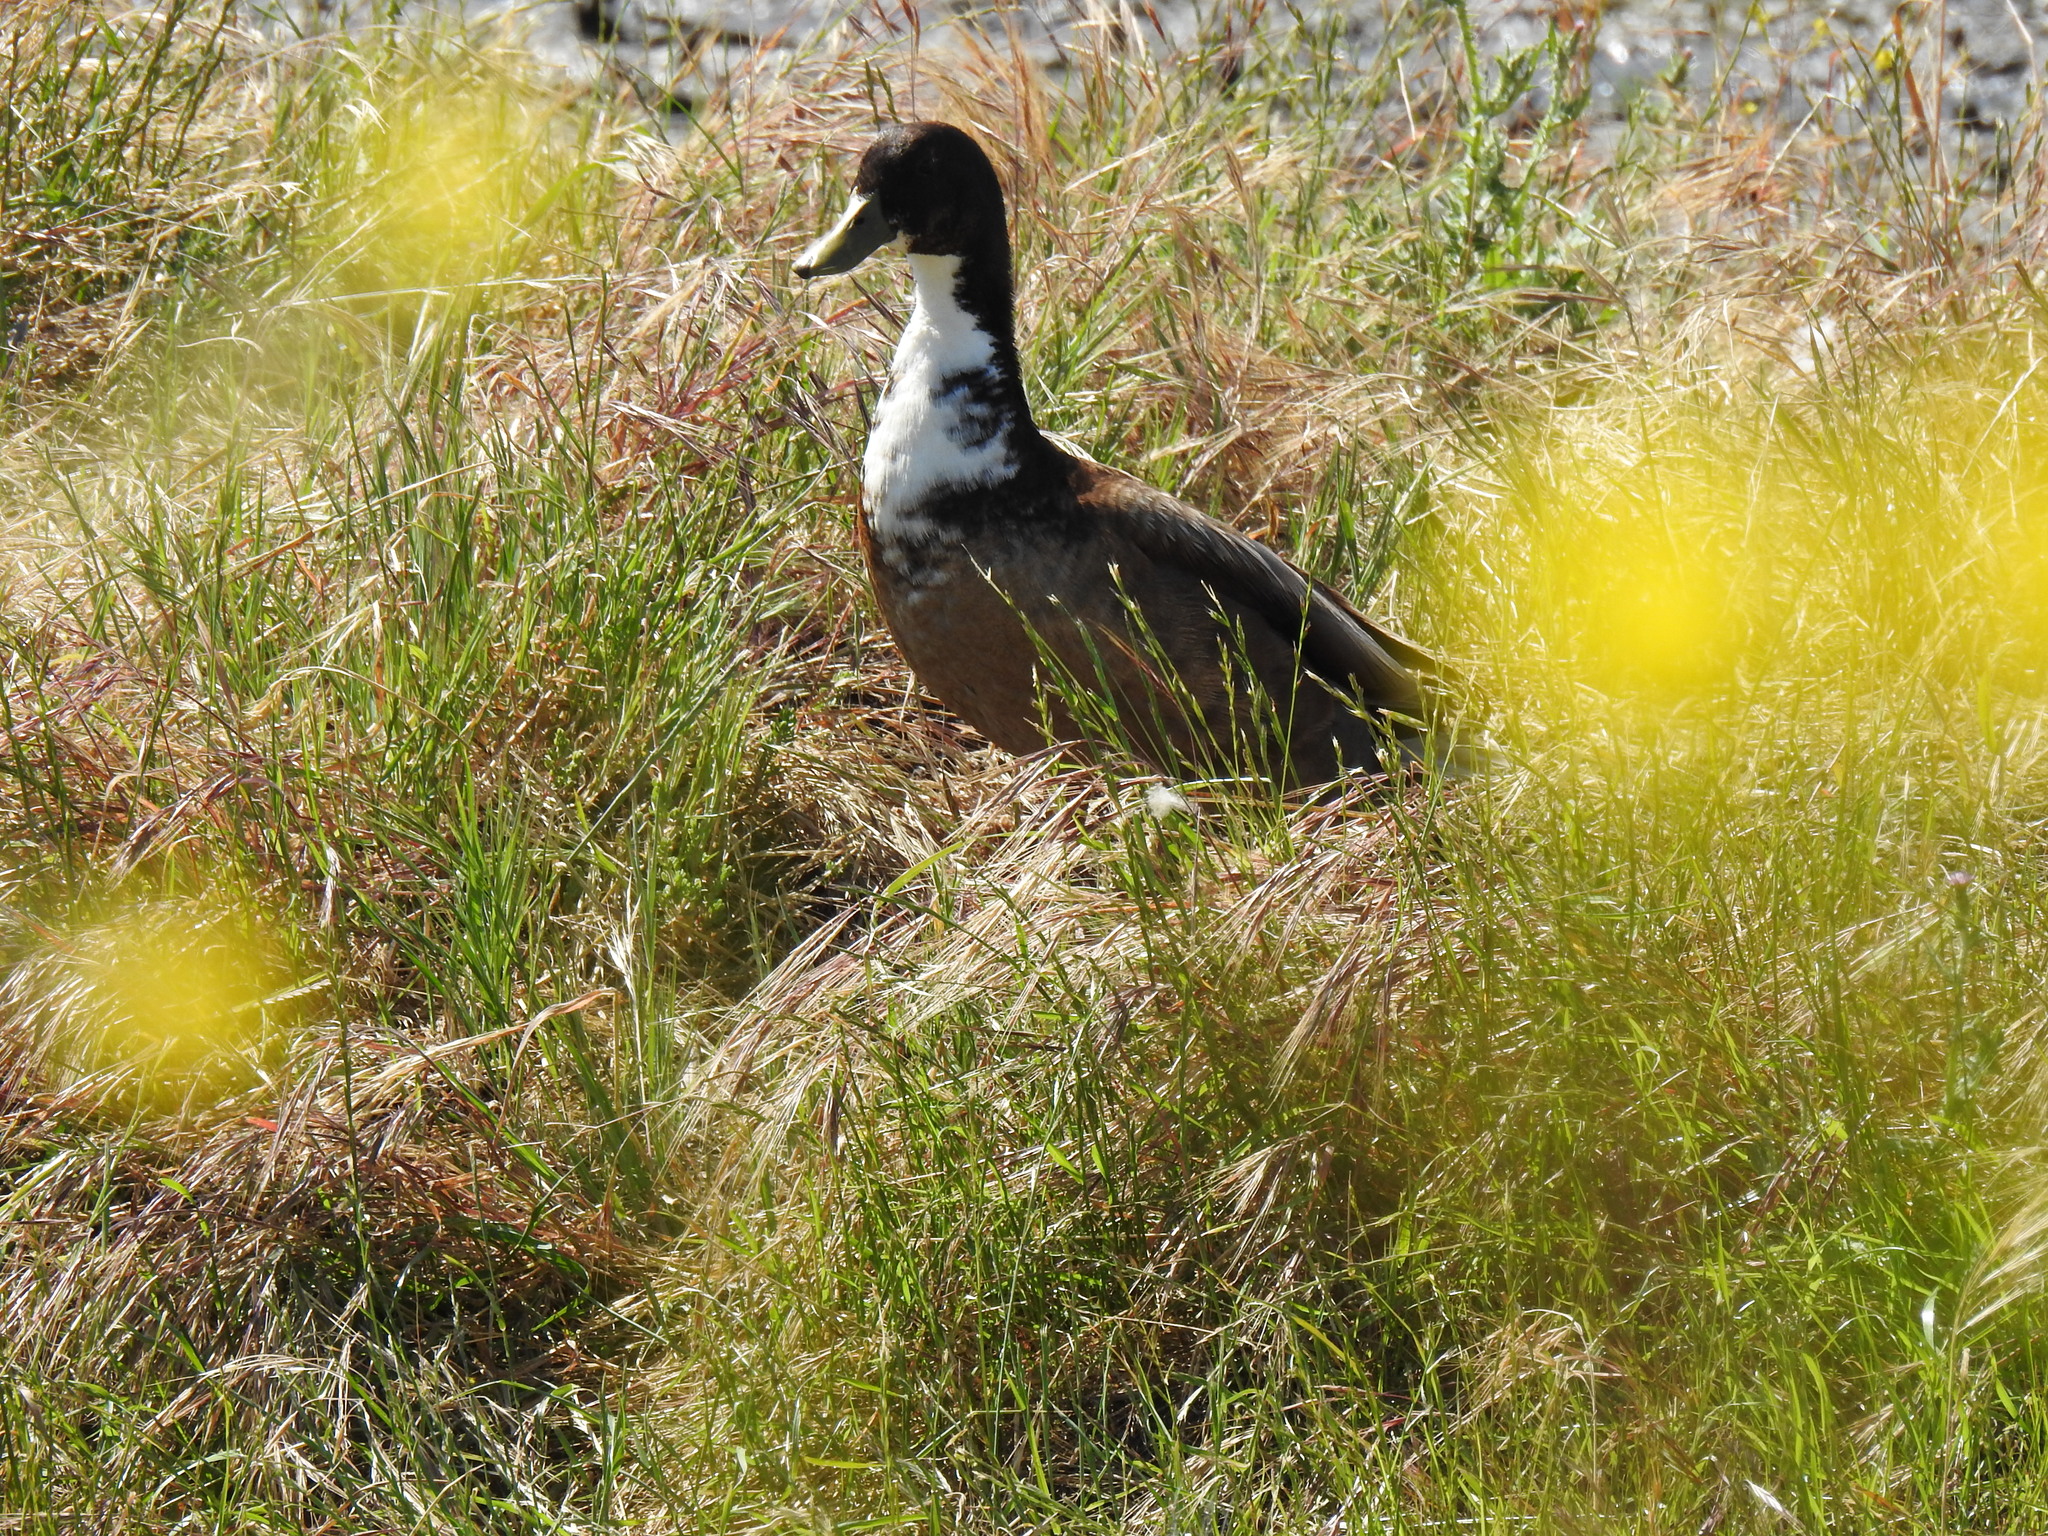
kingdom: Animalia
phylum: Chordata
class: Aves
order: Anseriformes
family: Anatidae
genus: Anas
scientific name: Anas platyrhynchos
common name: Mallard
